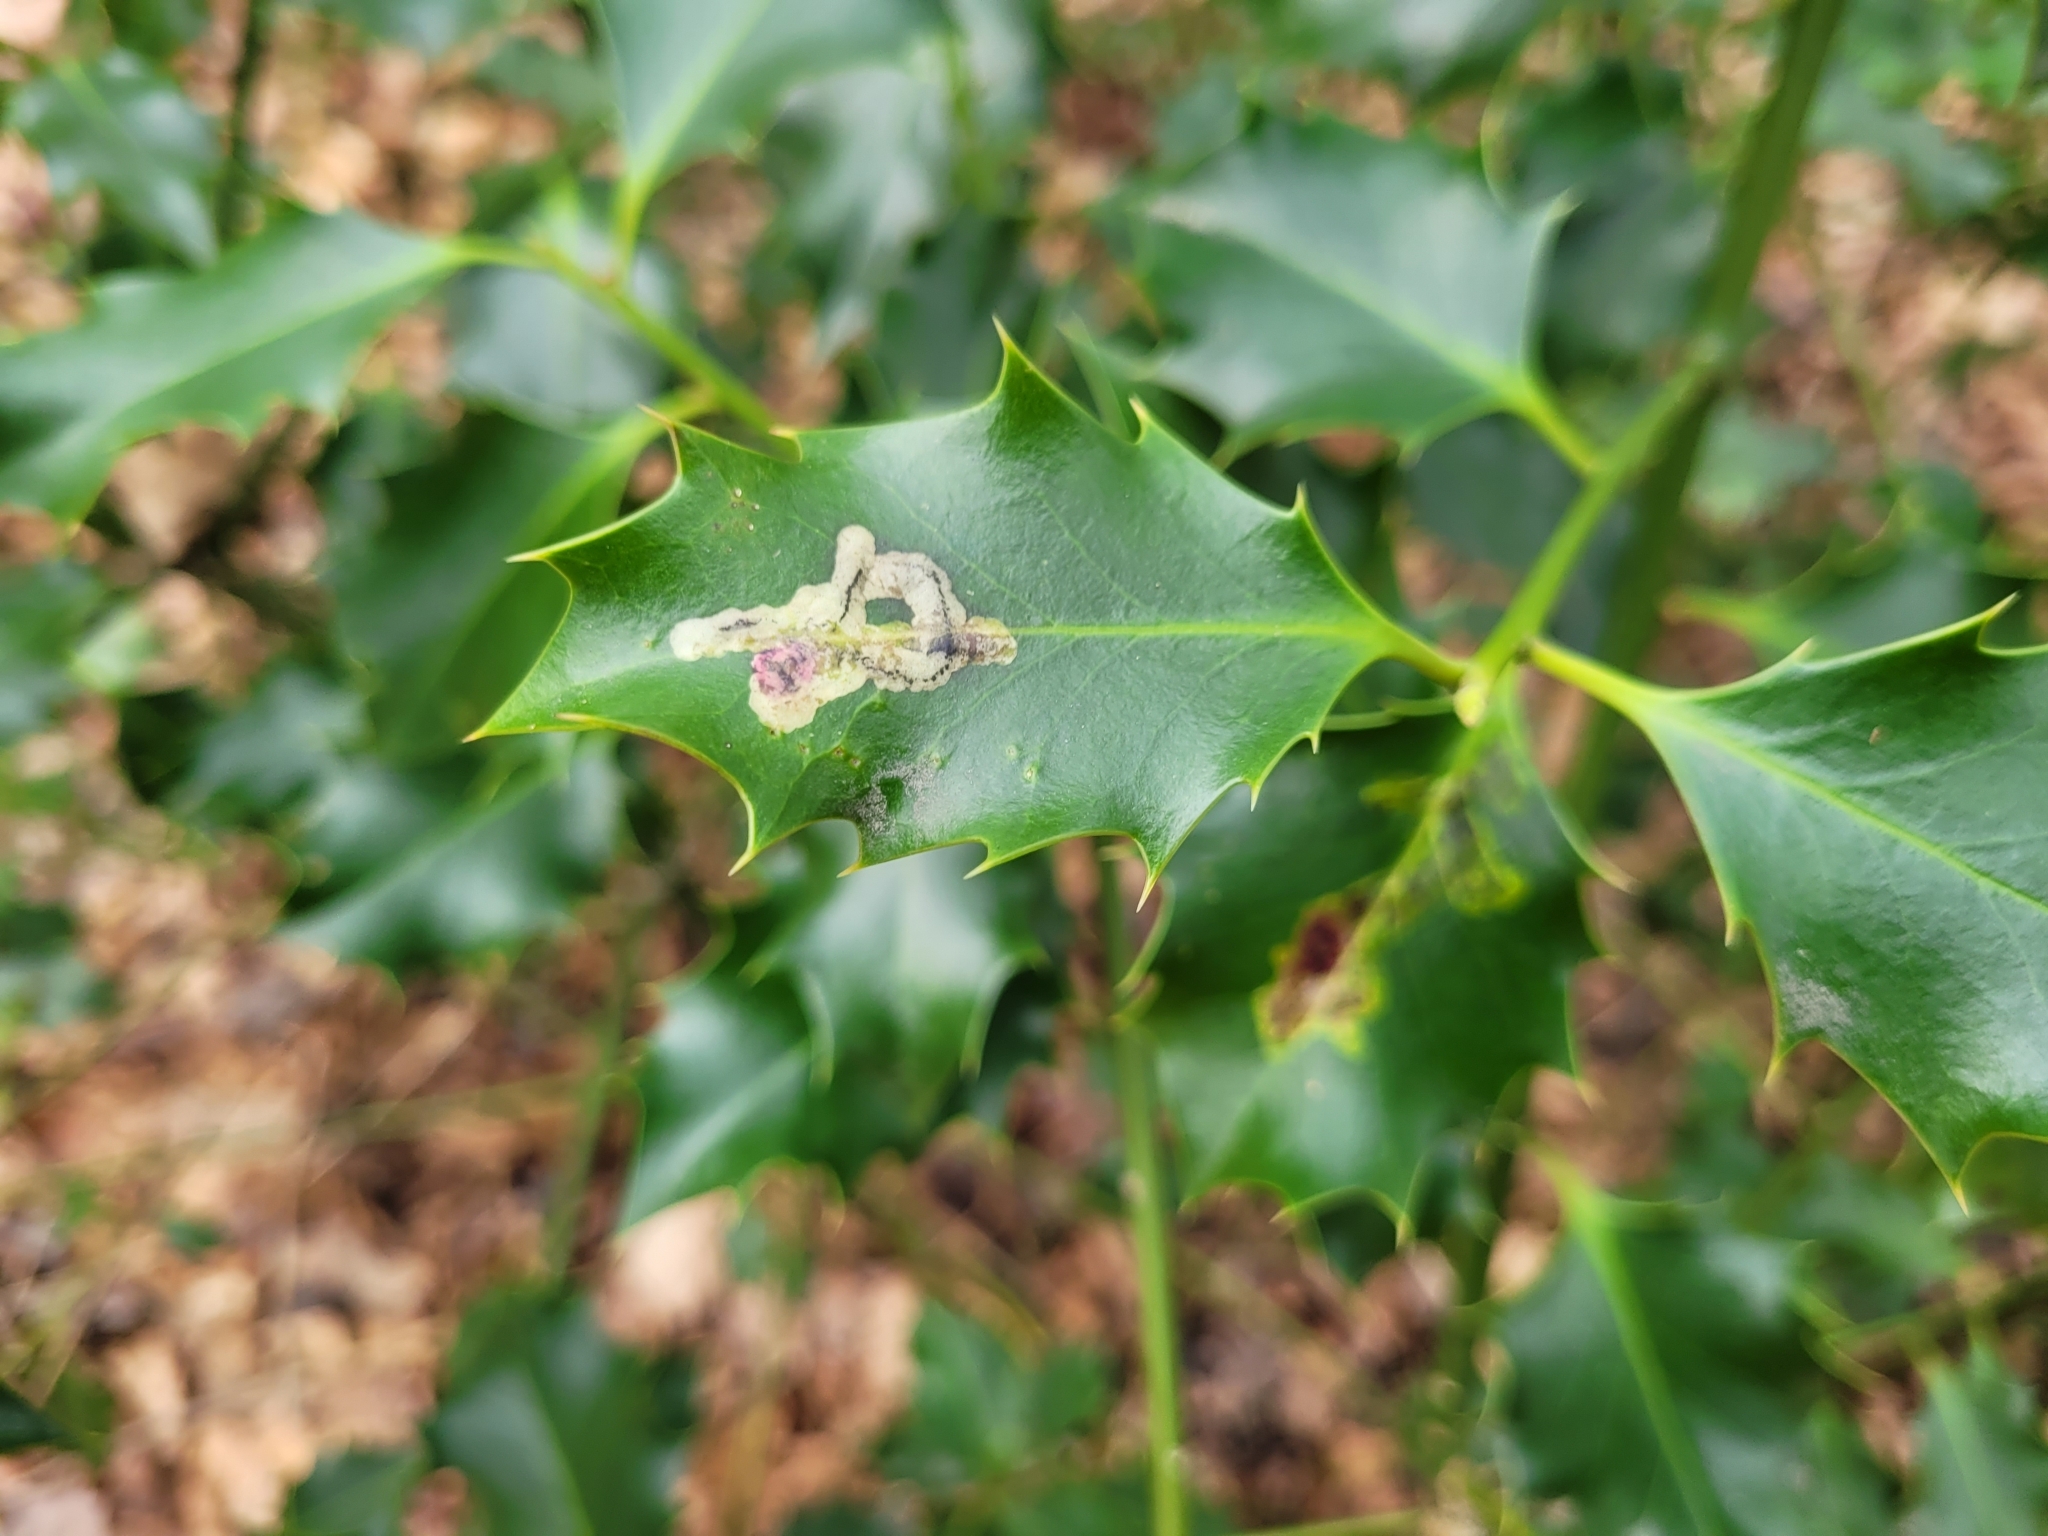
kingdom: Animalia
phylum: Arthropoda
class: Insecta
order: Diptera
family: Agromyzidae
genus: Phytomyza
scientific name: Phytomyza ilicis
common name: Holly leafminer
